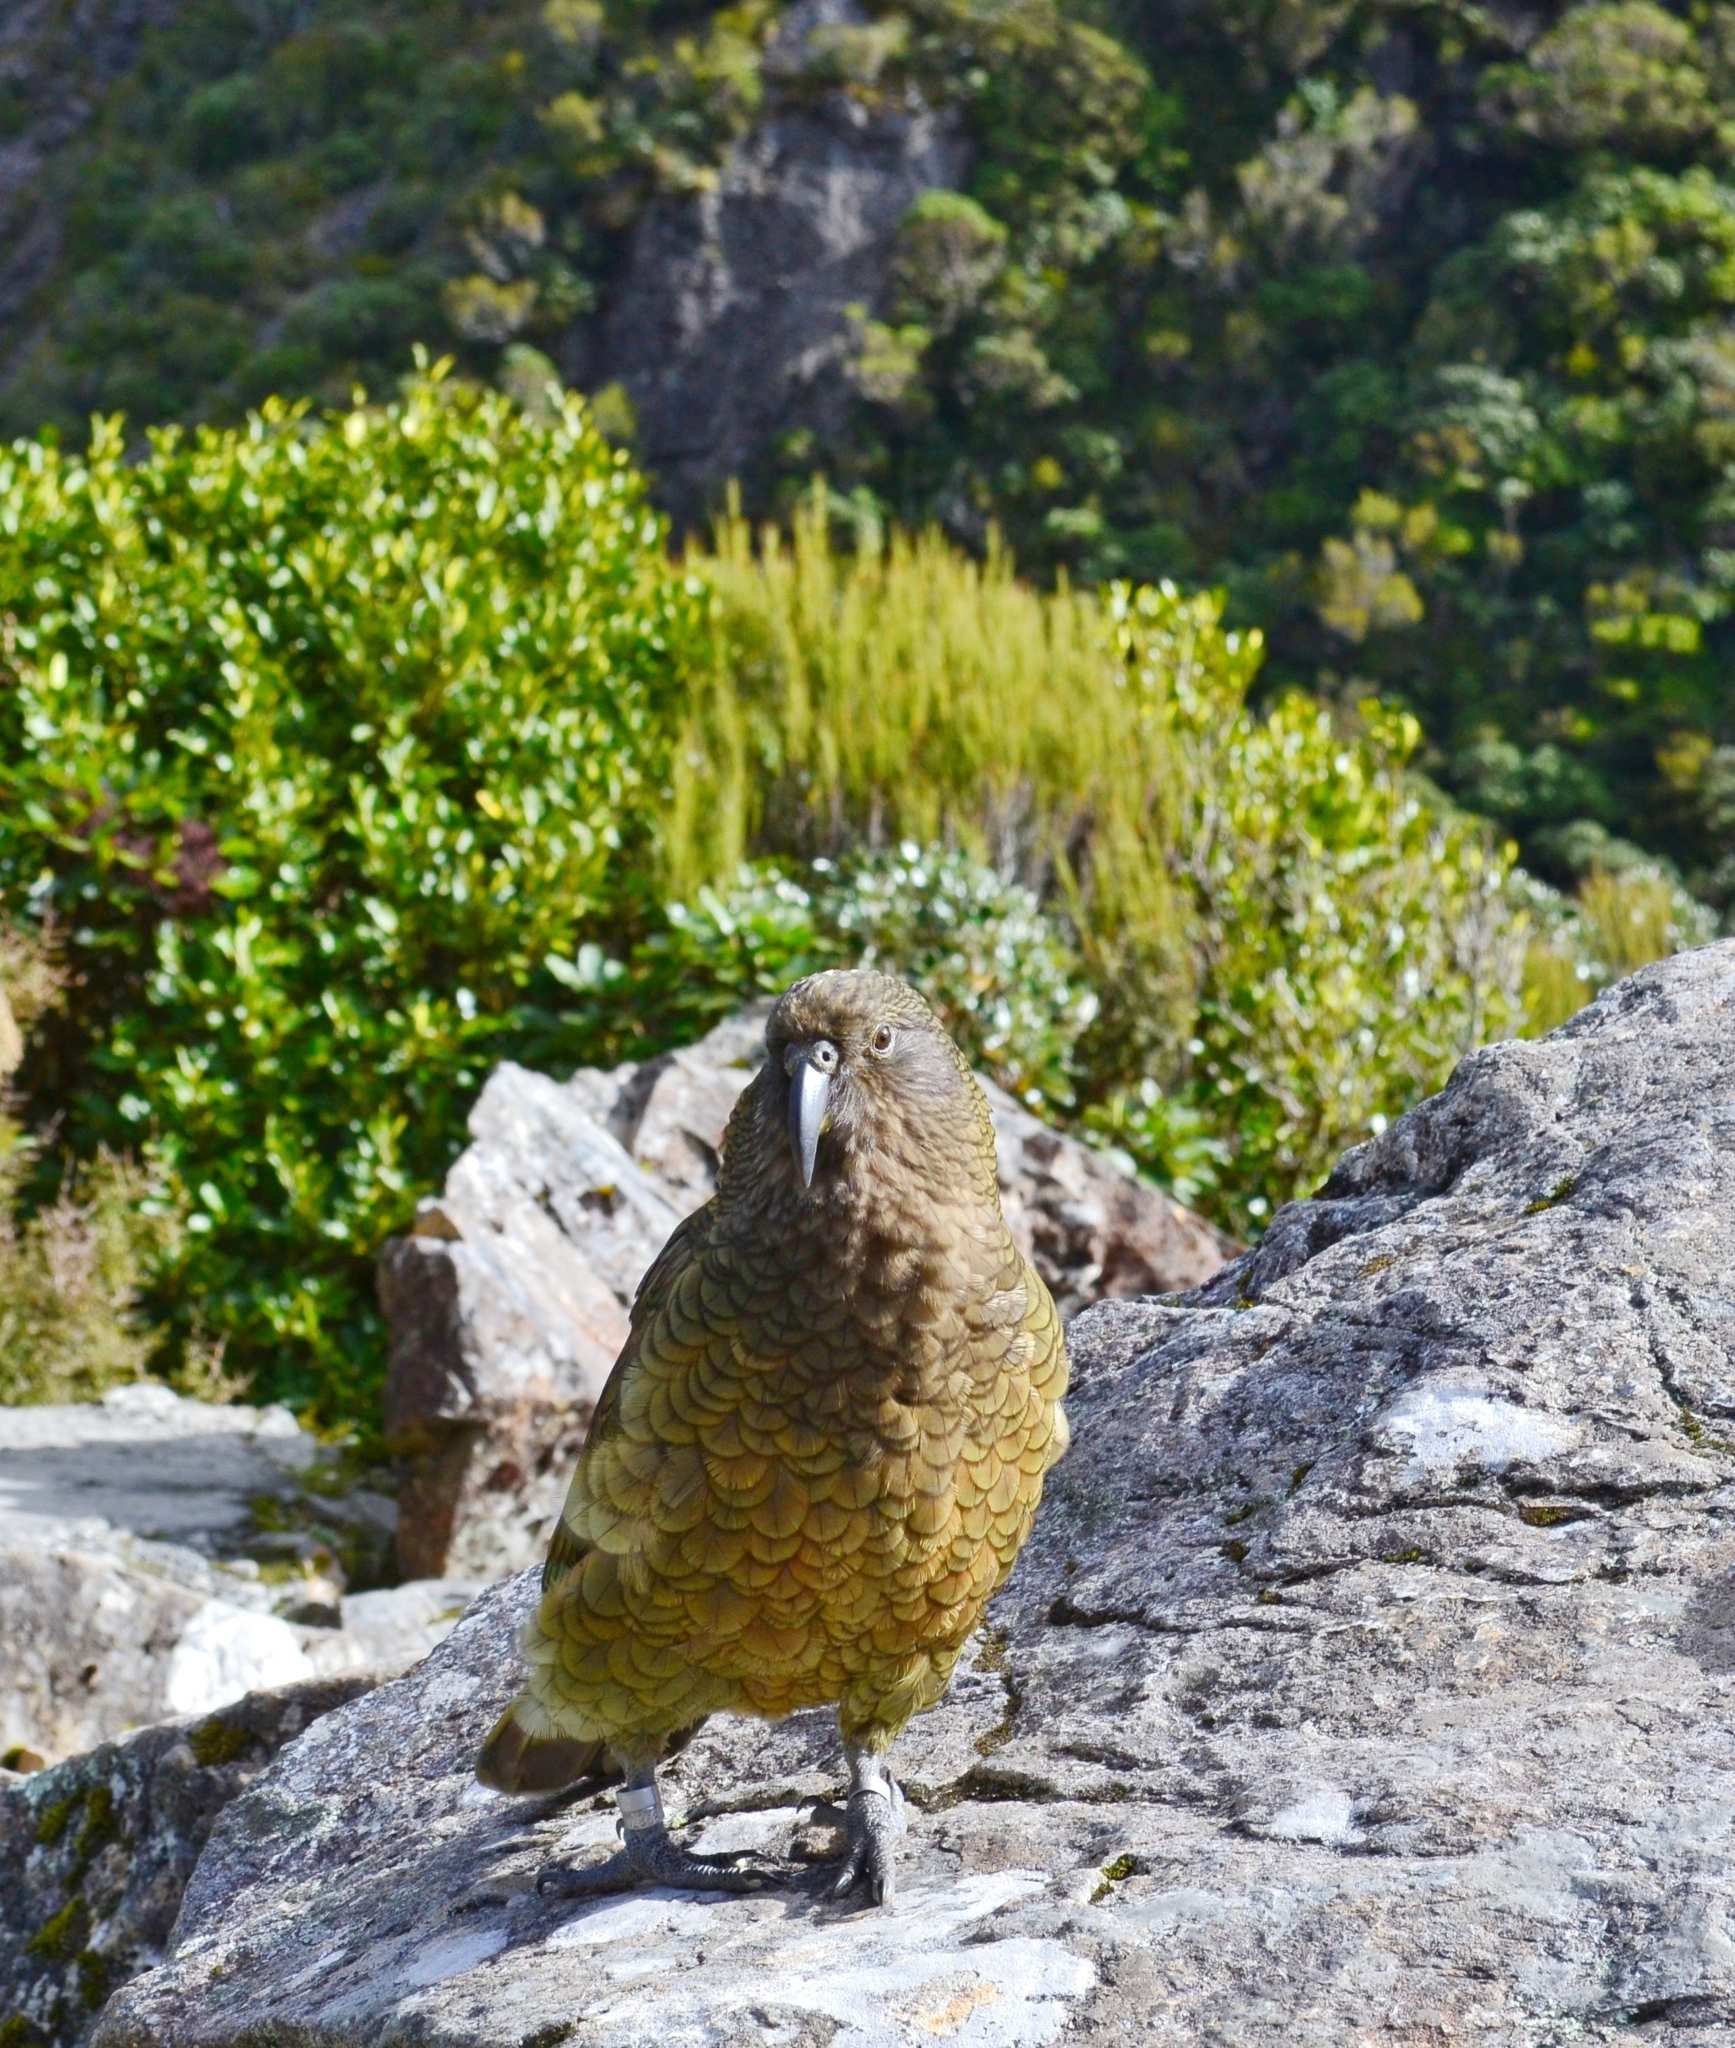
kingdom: Animalia
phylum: Chordata
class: Aves
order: Psittaciformes
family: Psittacidae
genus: Nestor
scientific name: Nestor notabilis
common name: Kea
